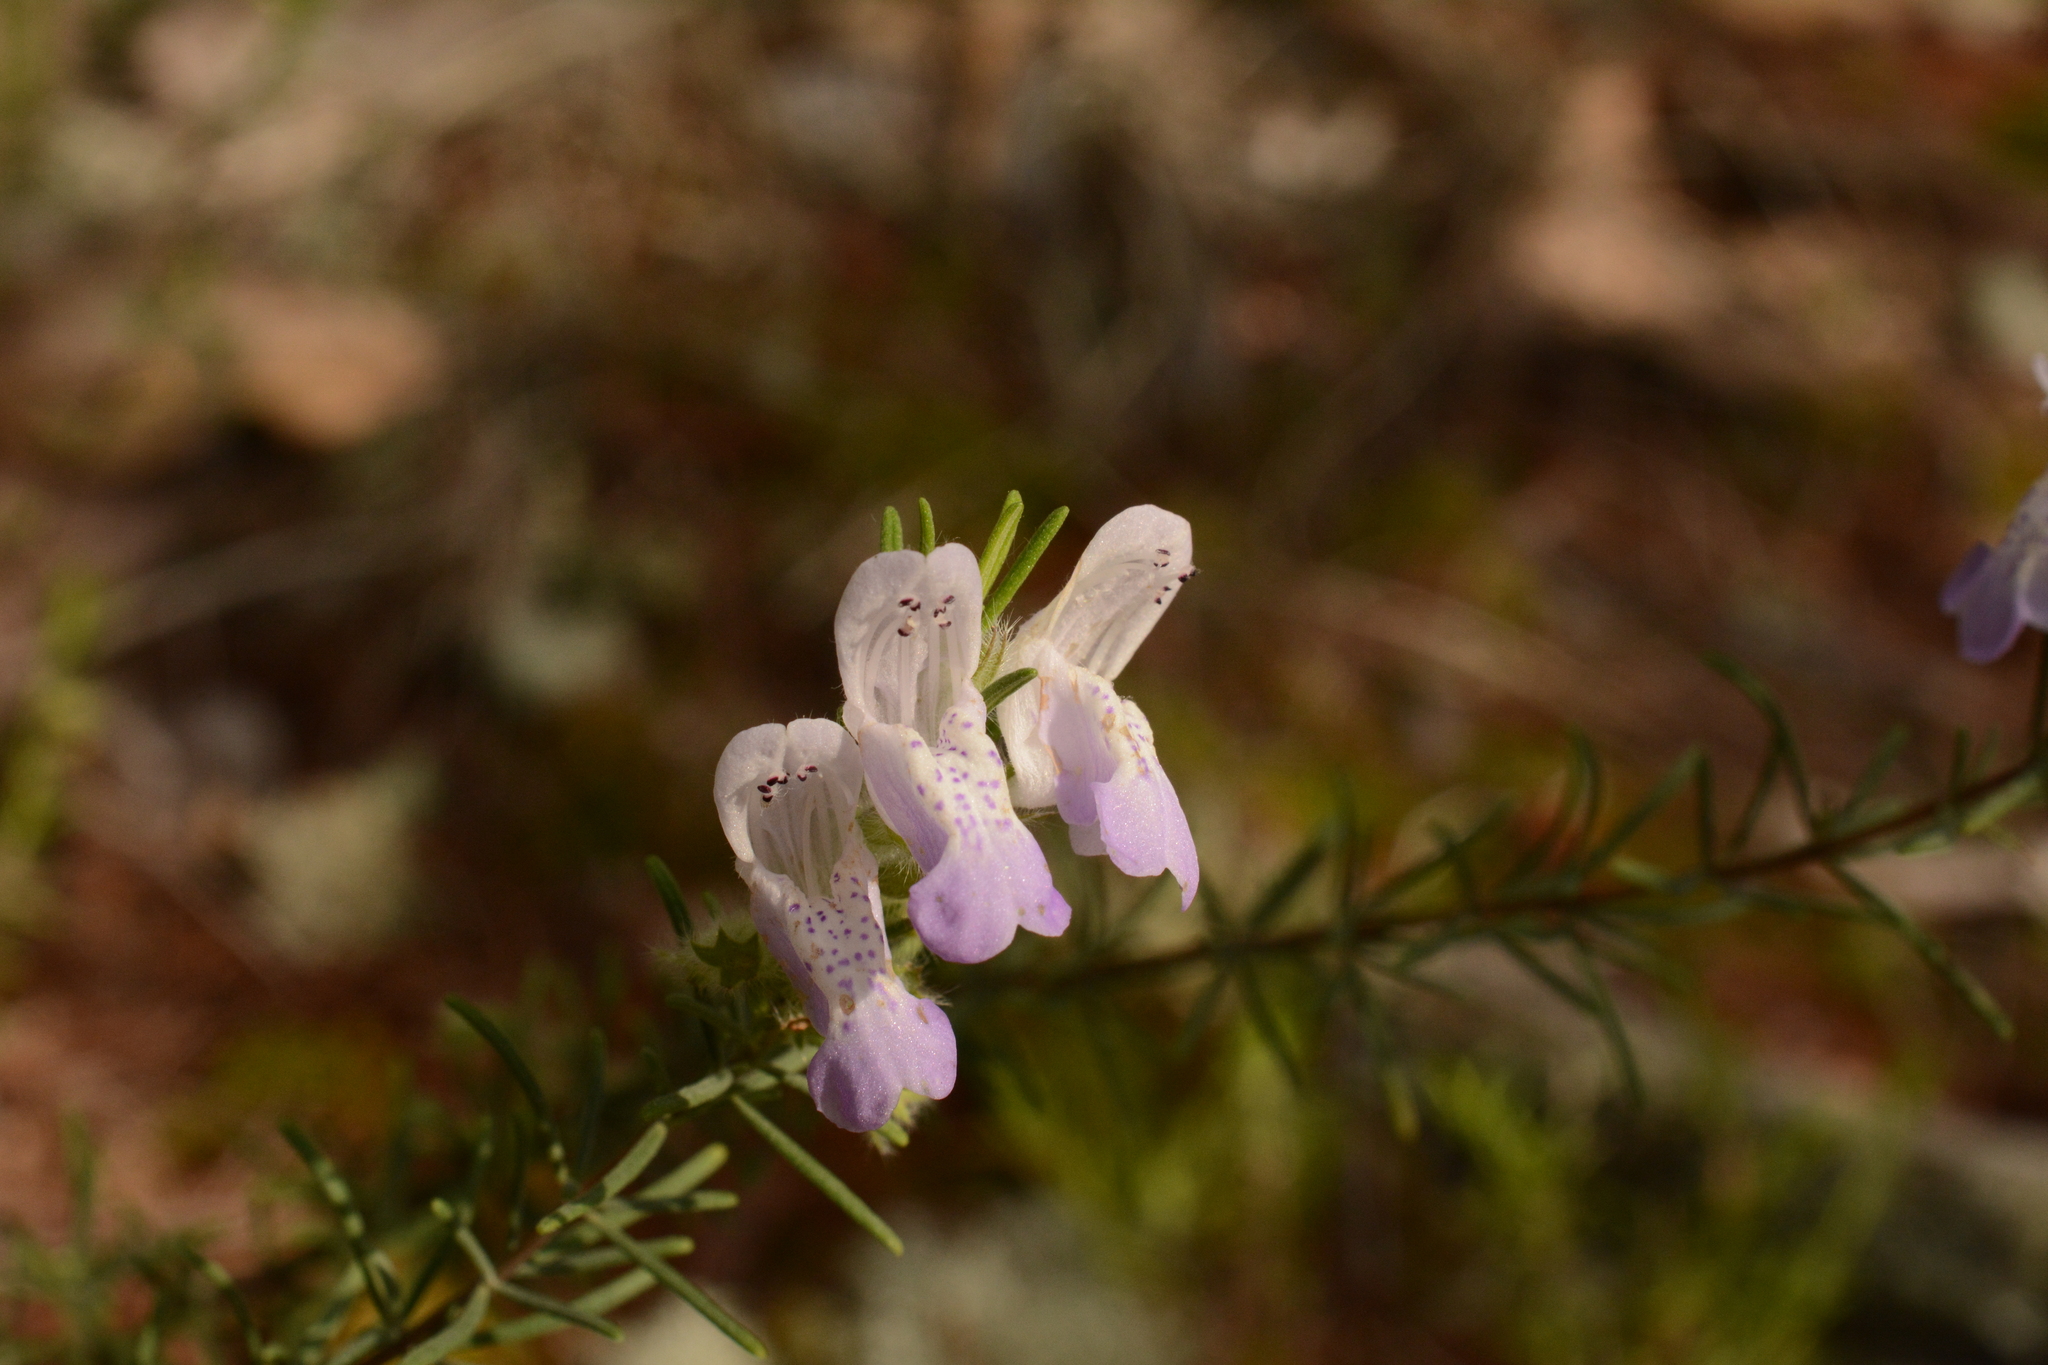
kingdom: Plantae
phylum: Tracheophyta
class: Magnoliopsida
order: Lamiales
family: Lamiaceae
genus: Conradina
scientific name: Conradina canescens
